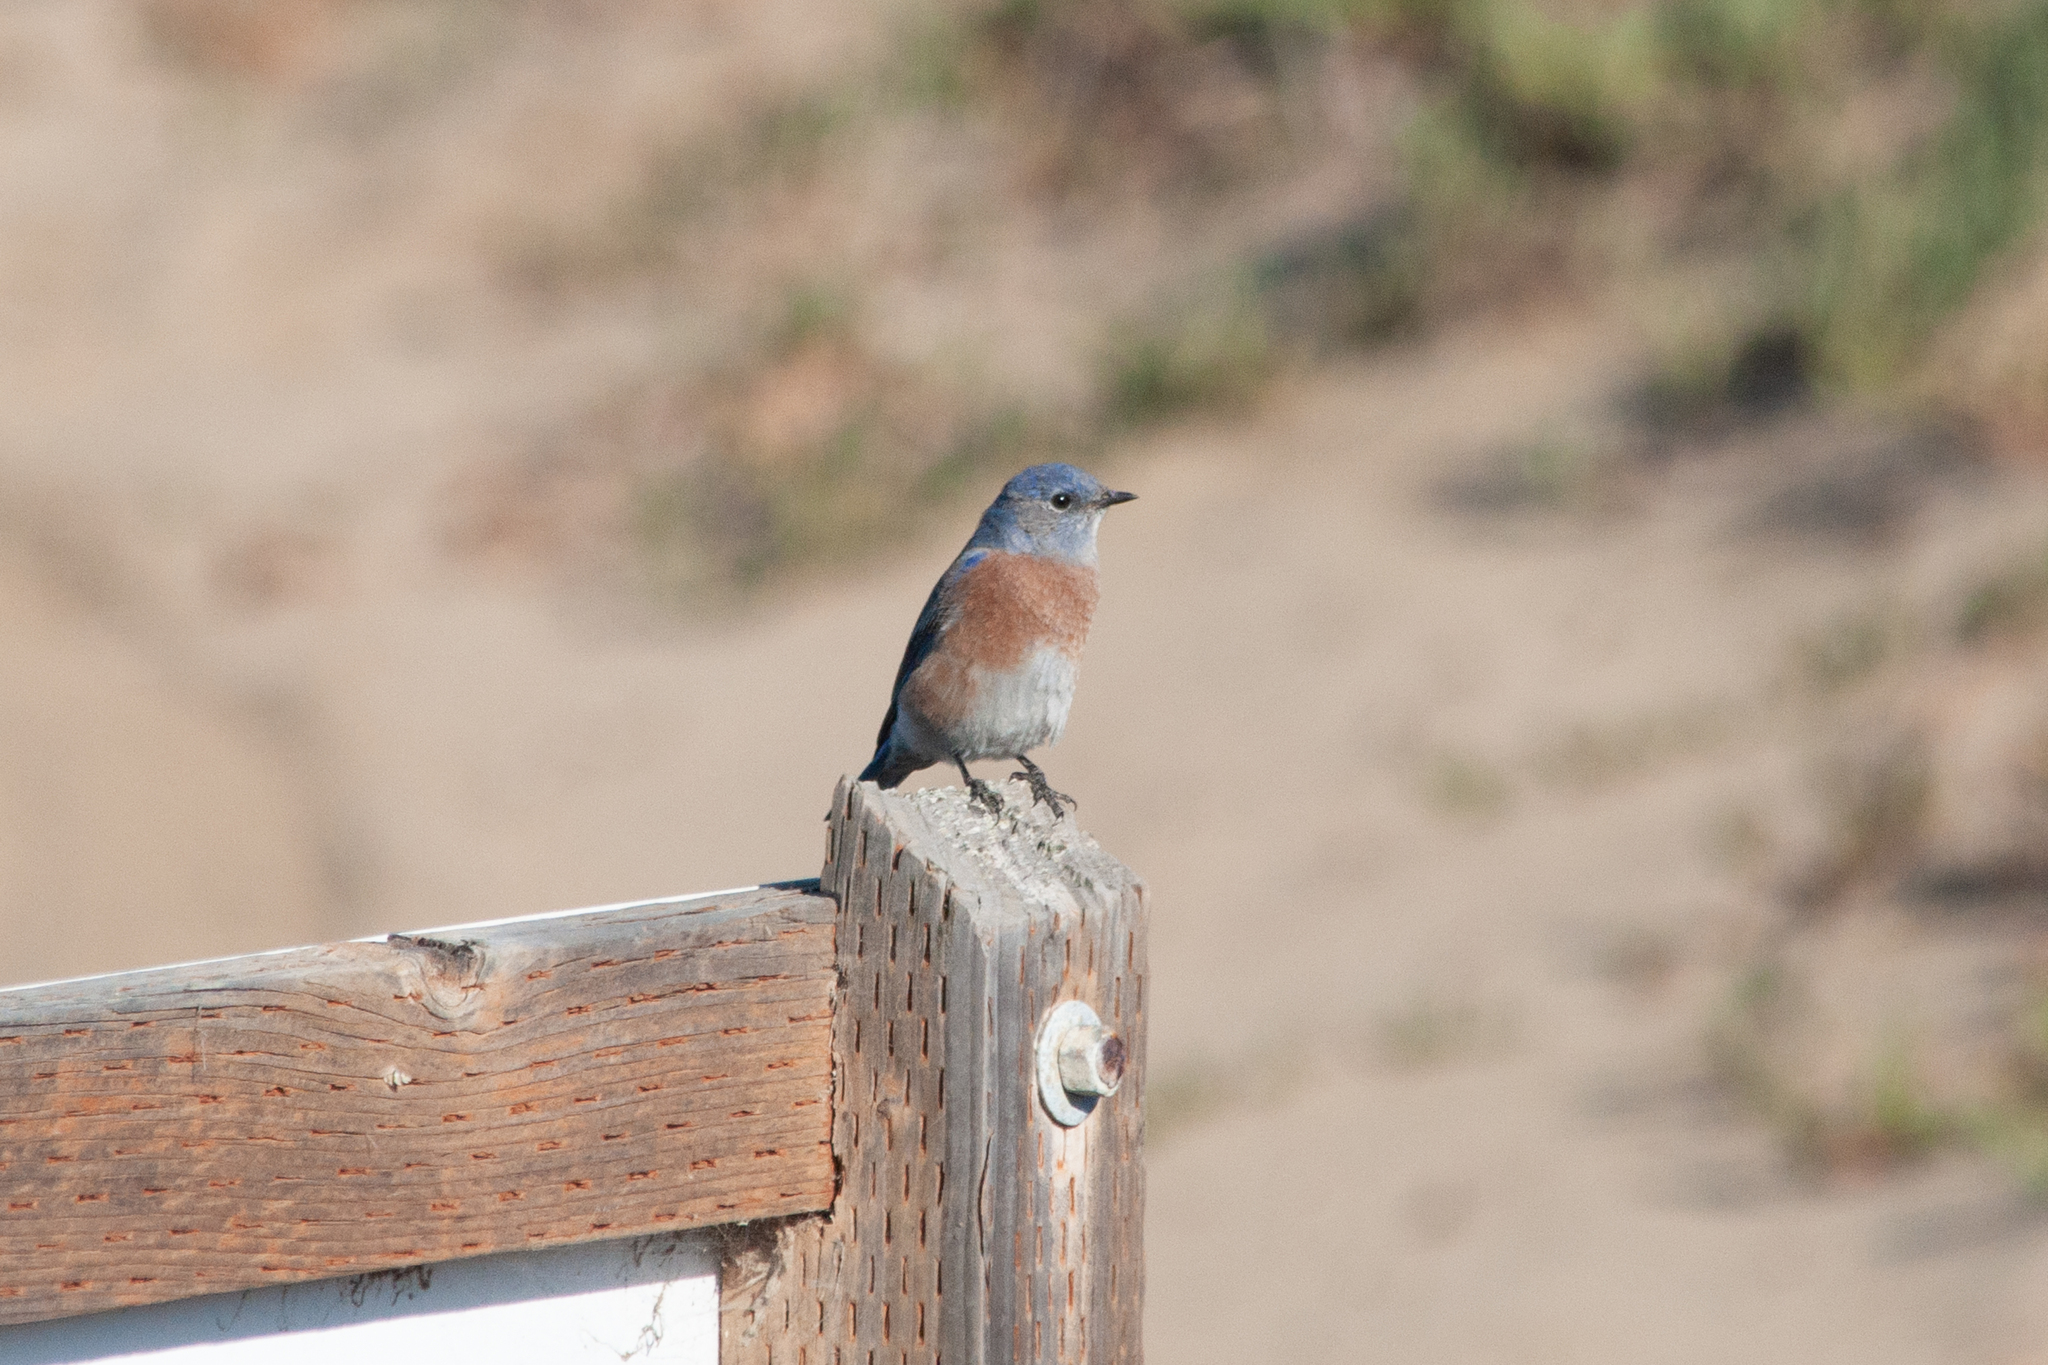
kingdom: Animalia
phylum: Chordata
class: Aves
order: Passeriformes
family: Turdidae
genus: Sialia
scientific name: Sialia mexicana
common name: Western bluebird
